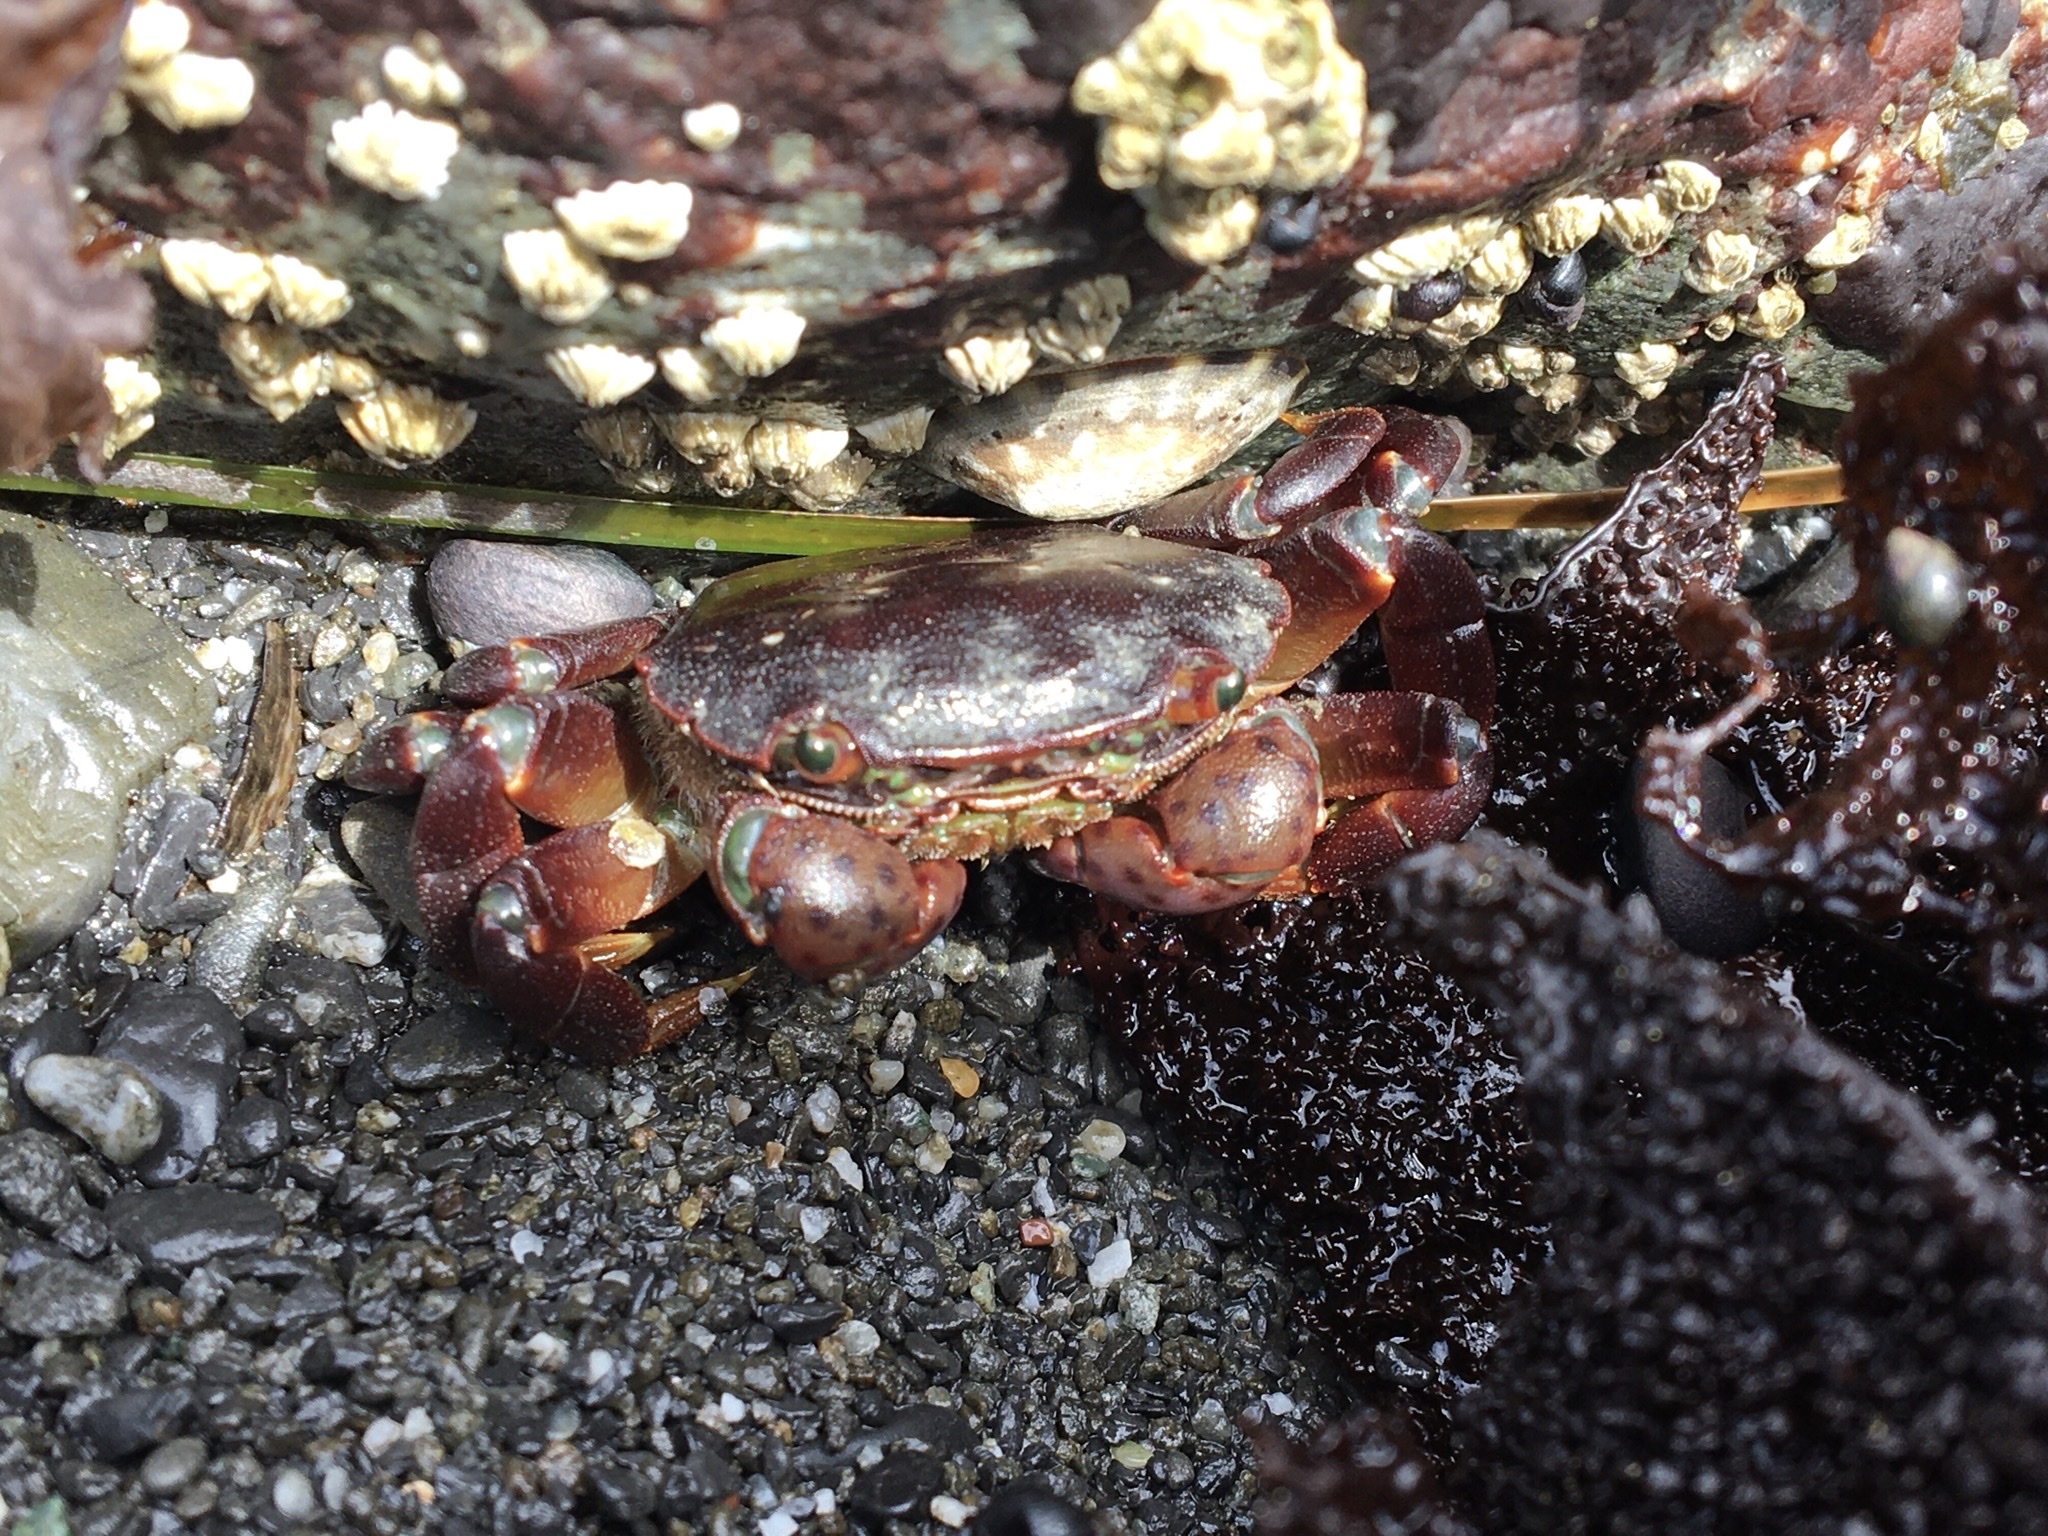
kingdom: Animalia
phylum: Arthropoda
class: Malacostraca
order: Decapoda
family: Varunidae
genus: Hemigrapsus
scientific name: Hemigrapsus nudus
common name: Purple shore crab
